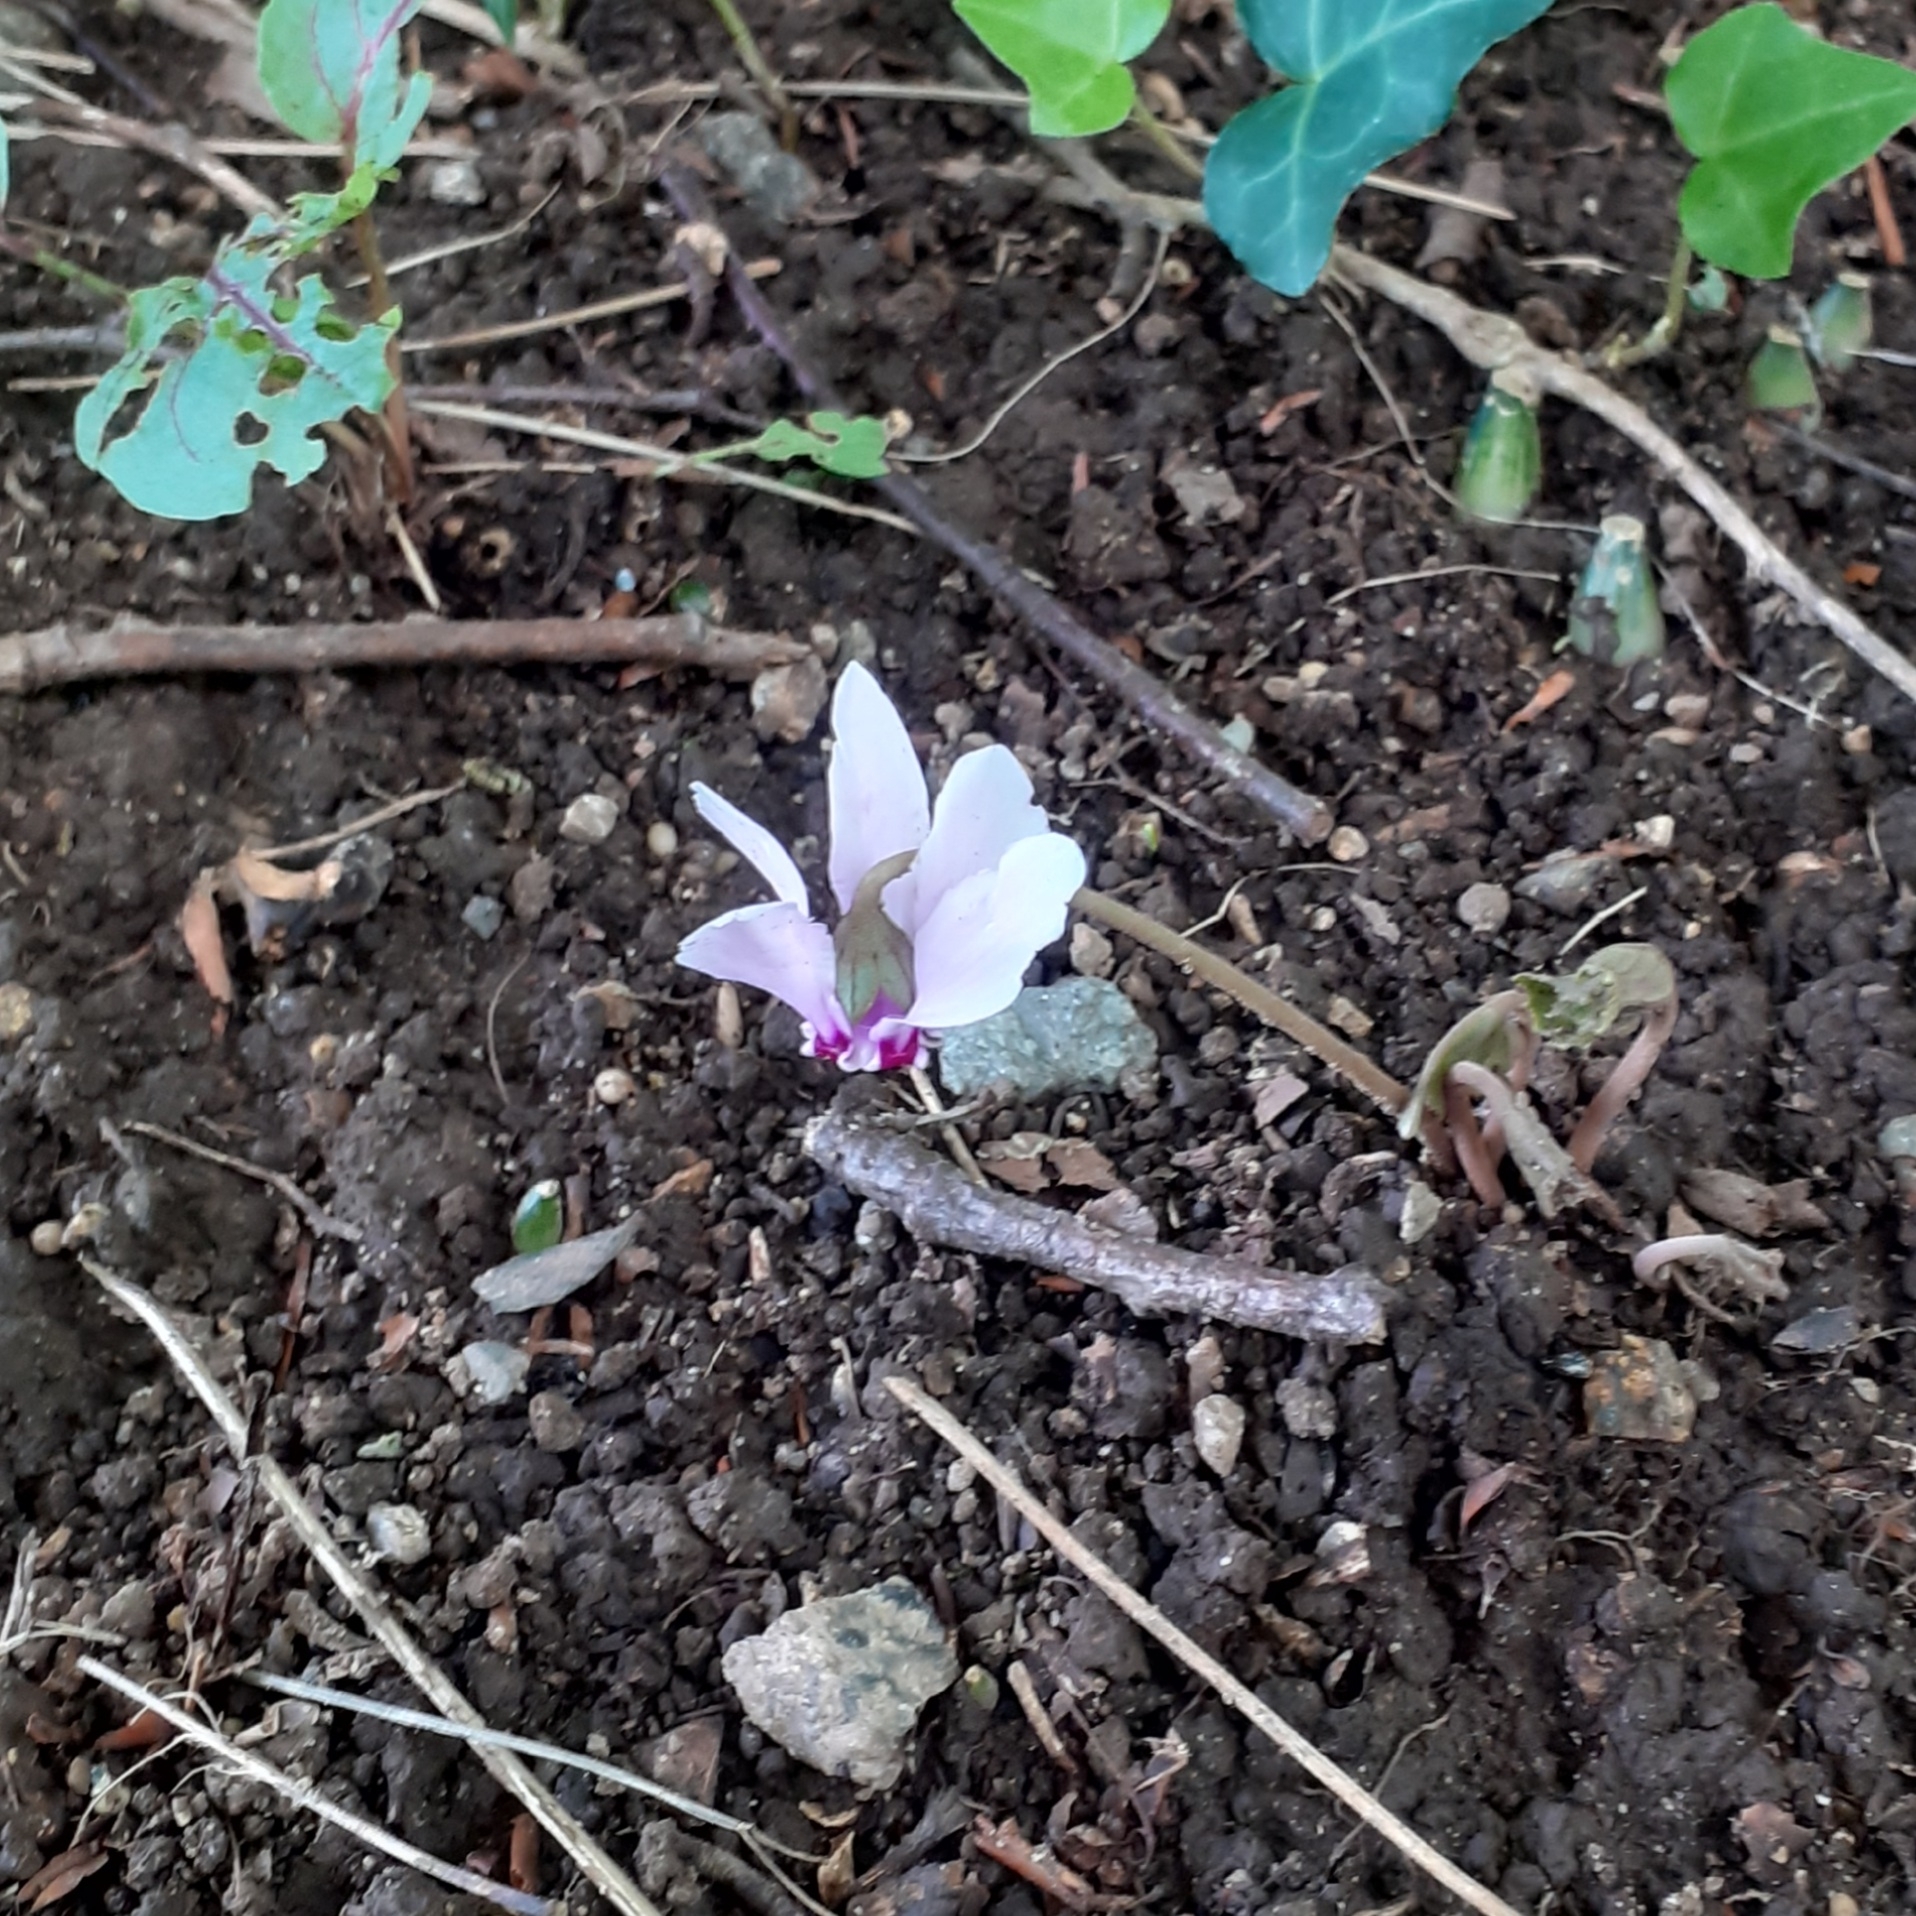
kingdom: Plantae
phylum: Tracheophyta
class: Magnoliopsida
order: Ericales
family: Primulaceae
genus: Cyclamen
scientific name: Cyclamen hederifolium
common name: Sowbread
